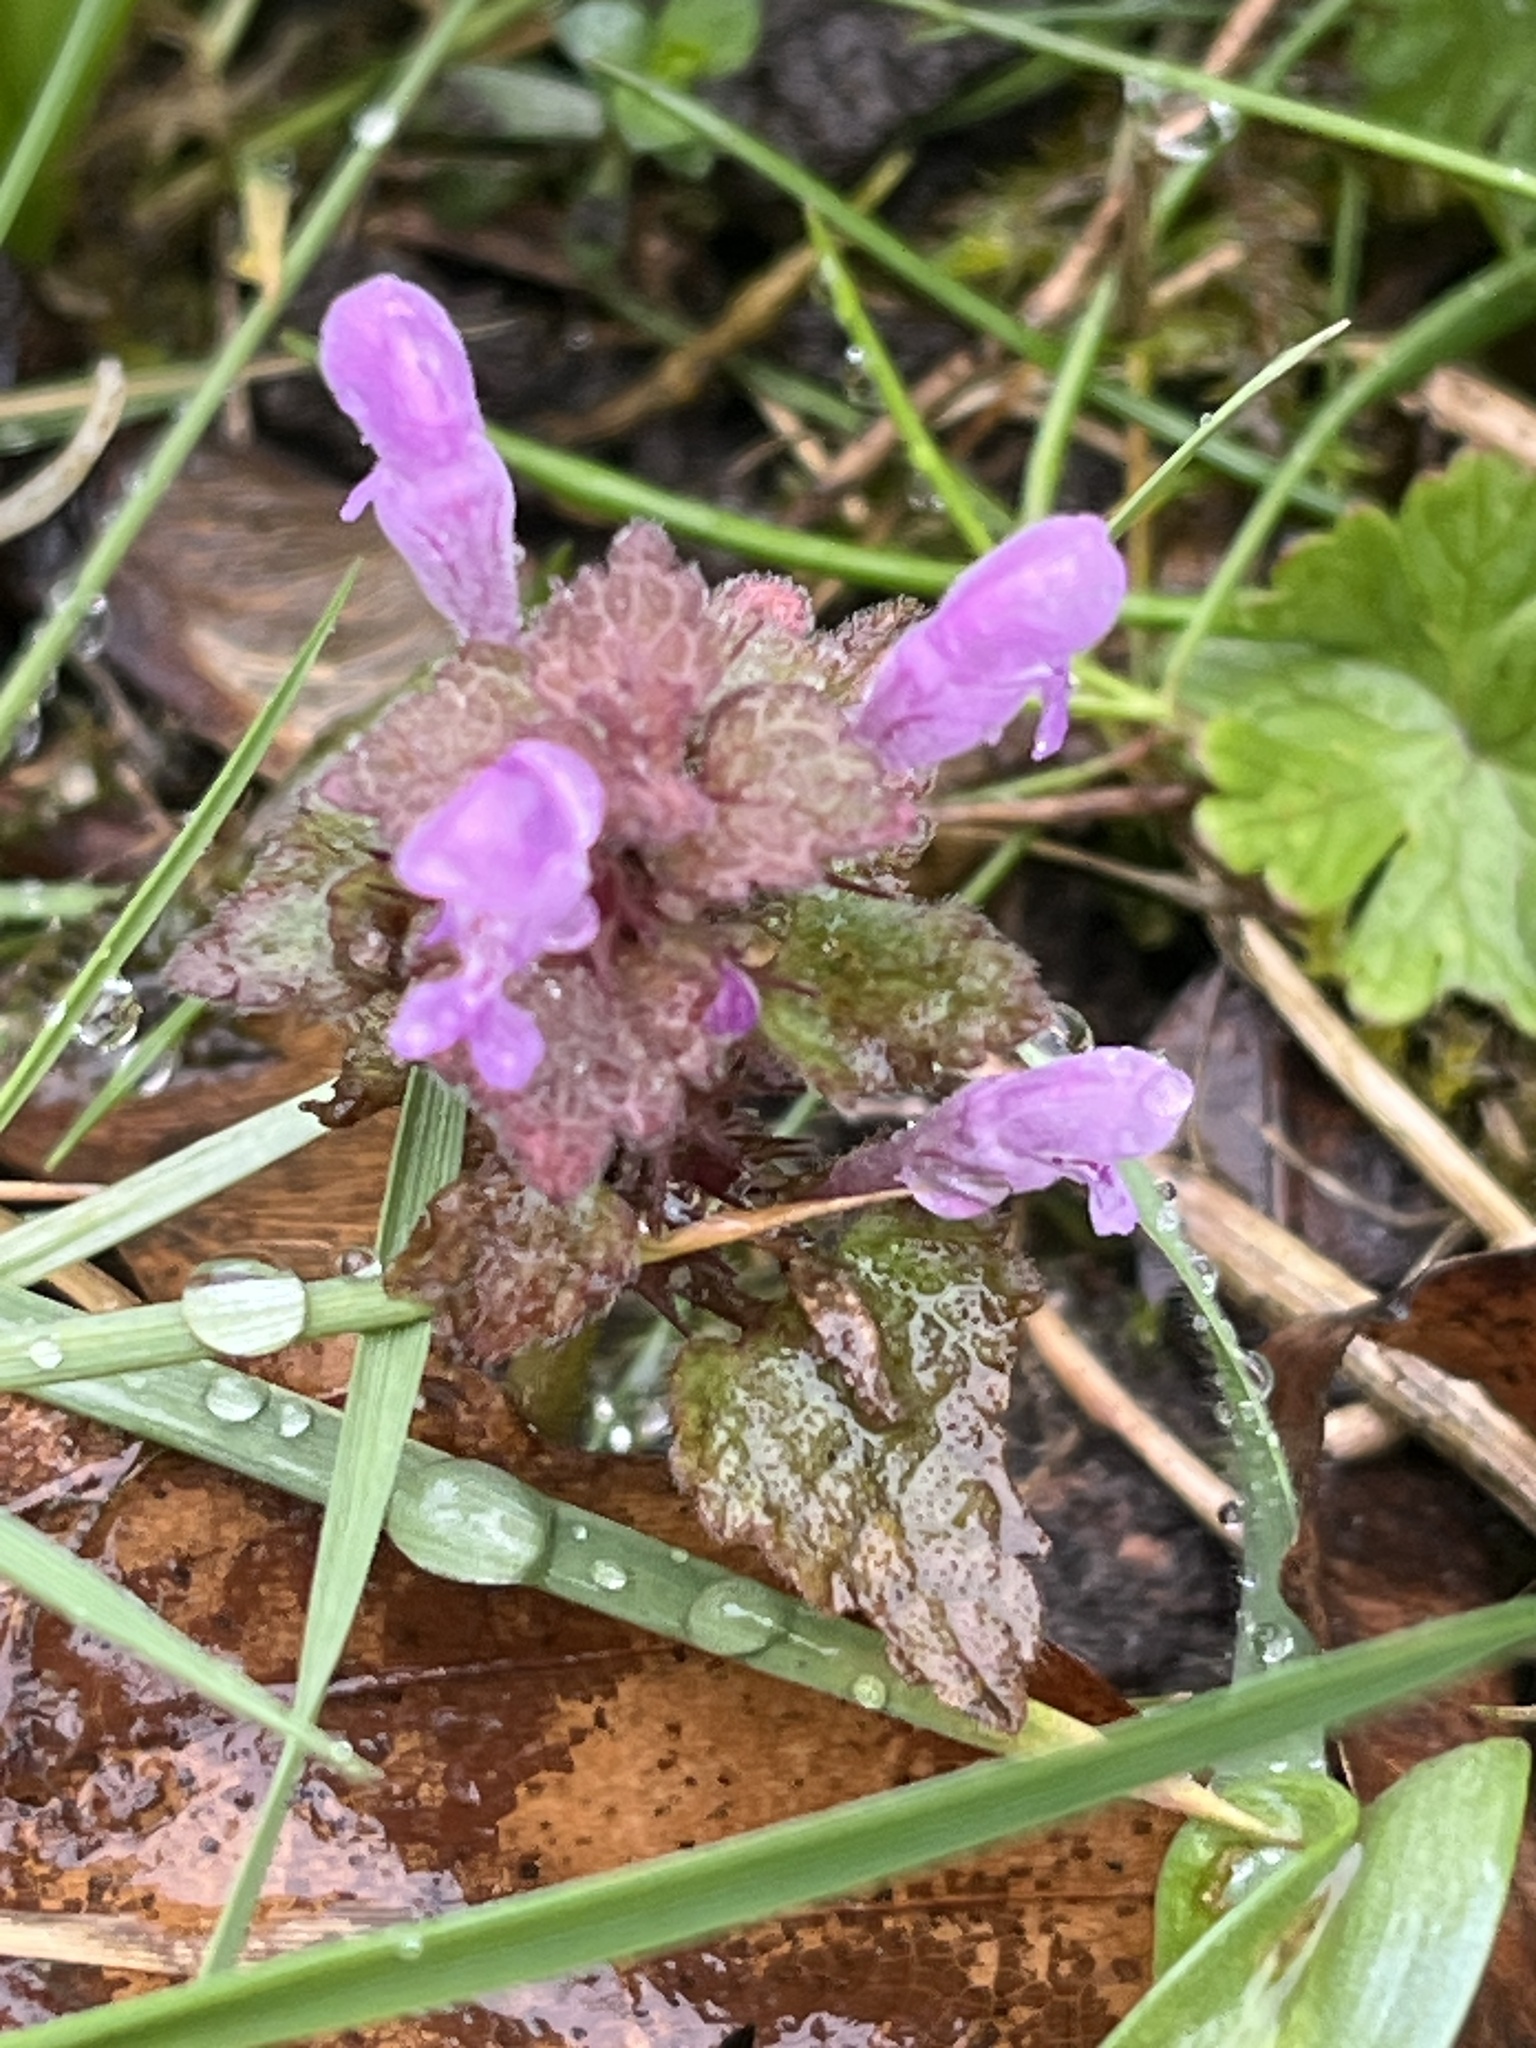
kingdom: Plantae
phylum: Tracheophyta
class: Magnoliopsida
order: Lamiales
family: Lamiaceae
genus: Lamium
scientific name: Lamium purpureum
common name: Red dead-nettle
